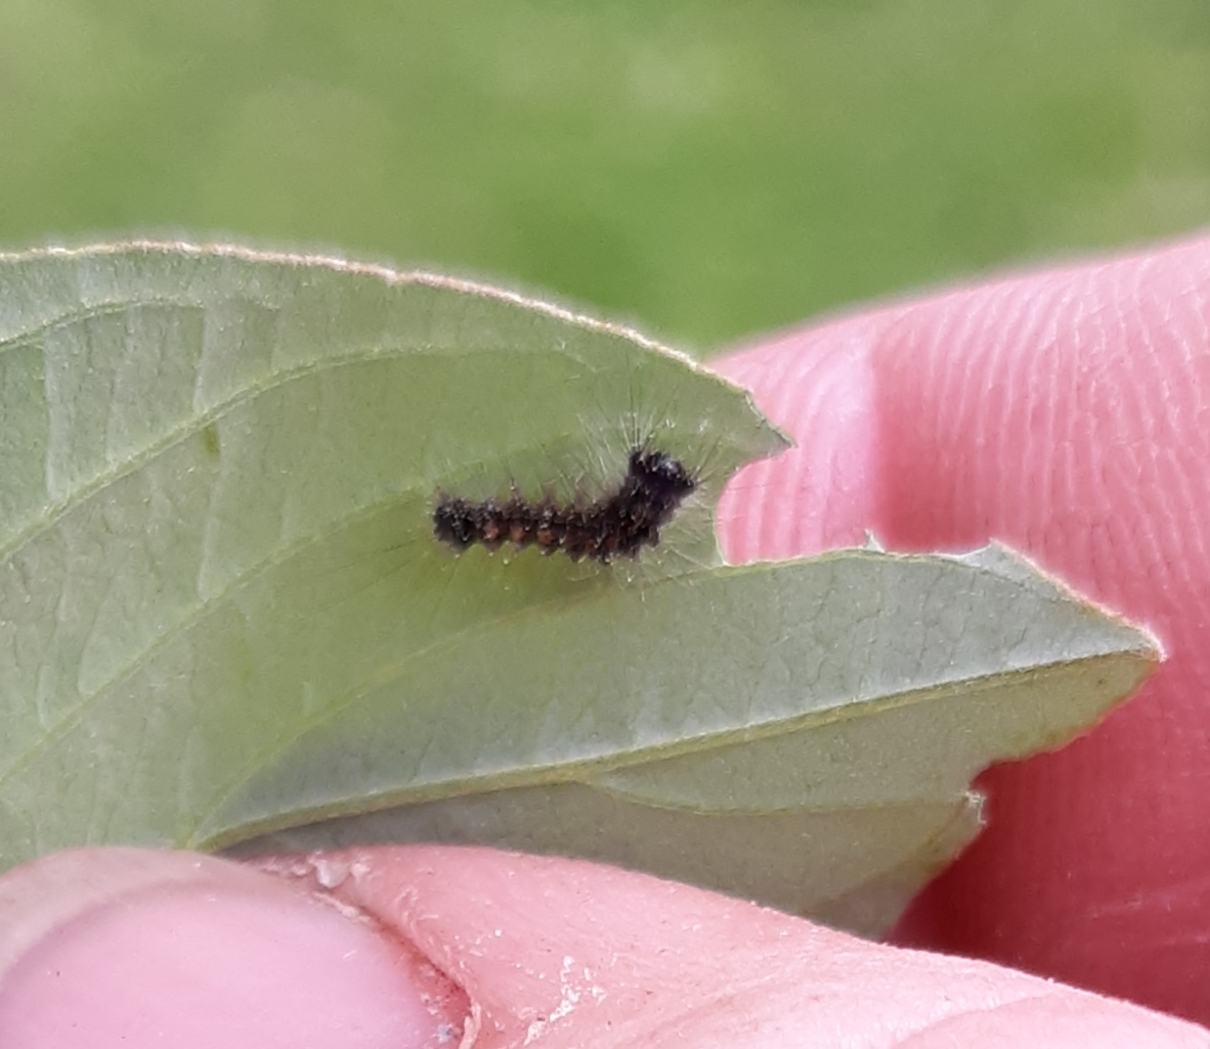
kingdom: Animalia
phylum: Arthropoda
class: Insecta
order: Lepidoptera
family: Erebidae
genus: Lymantria
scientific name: Lymantria dispar
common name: Gypsy moth
